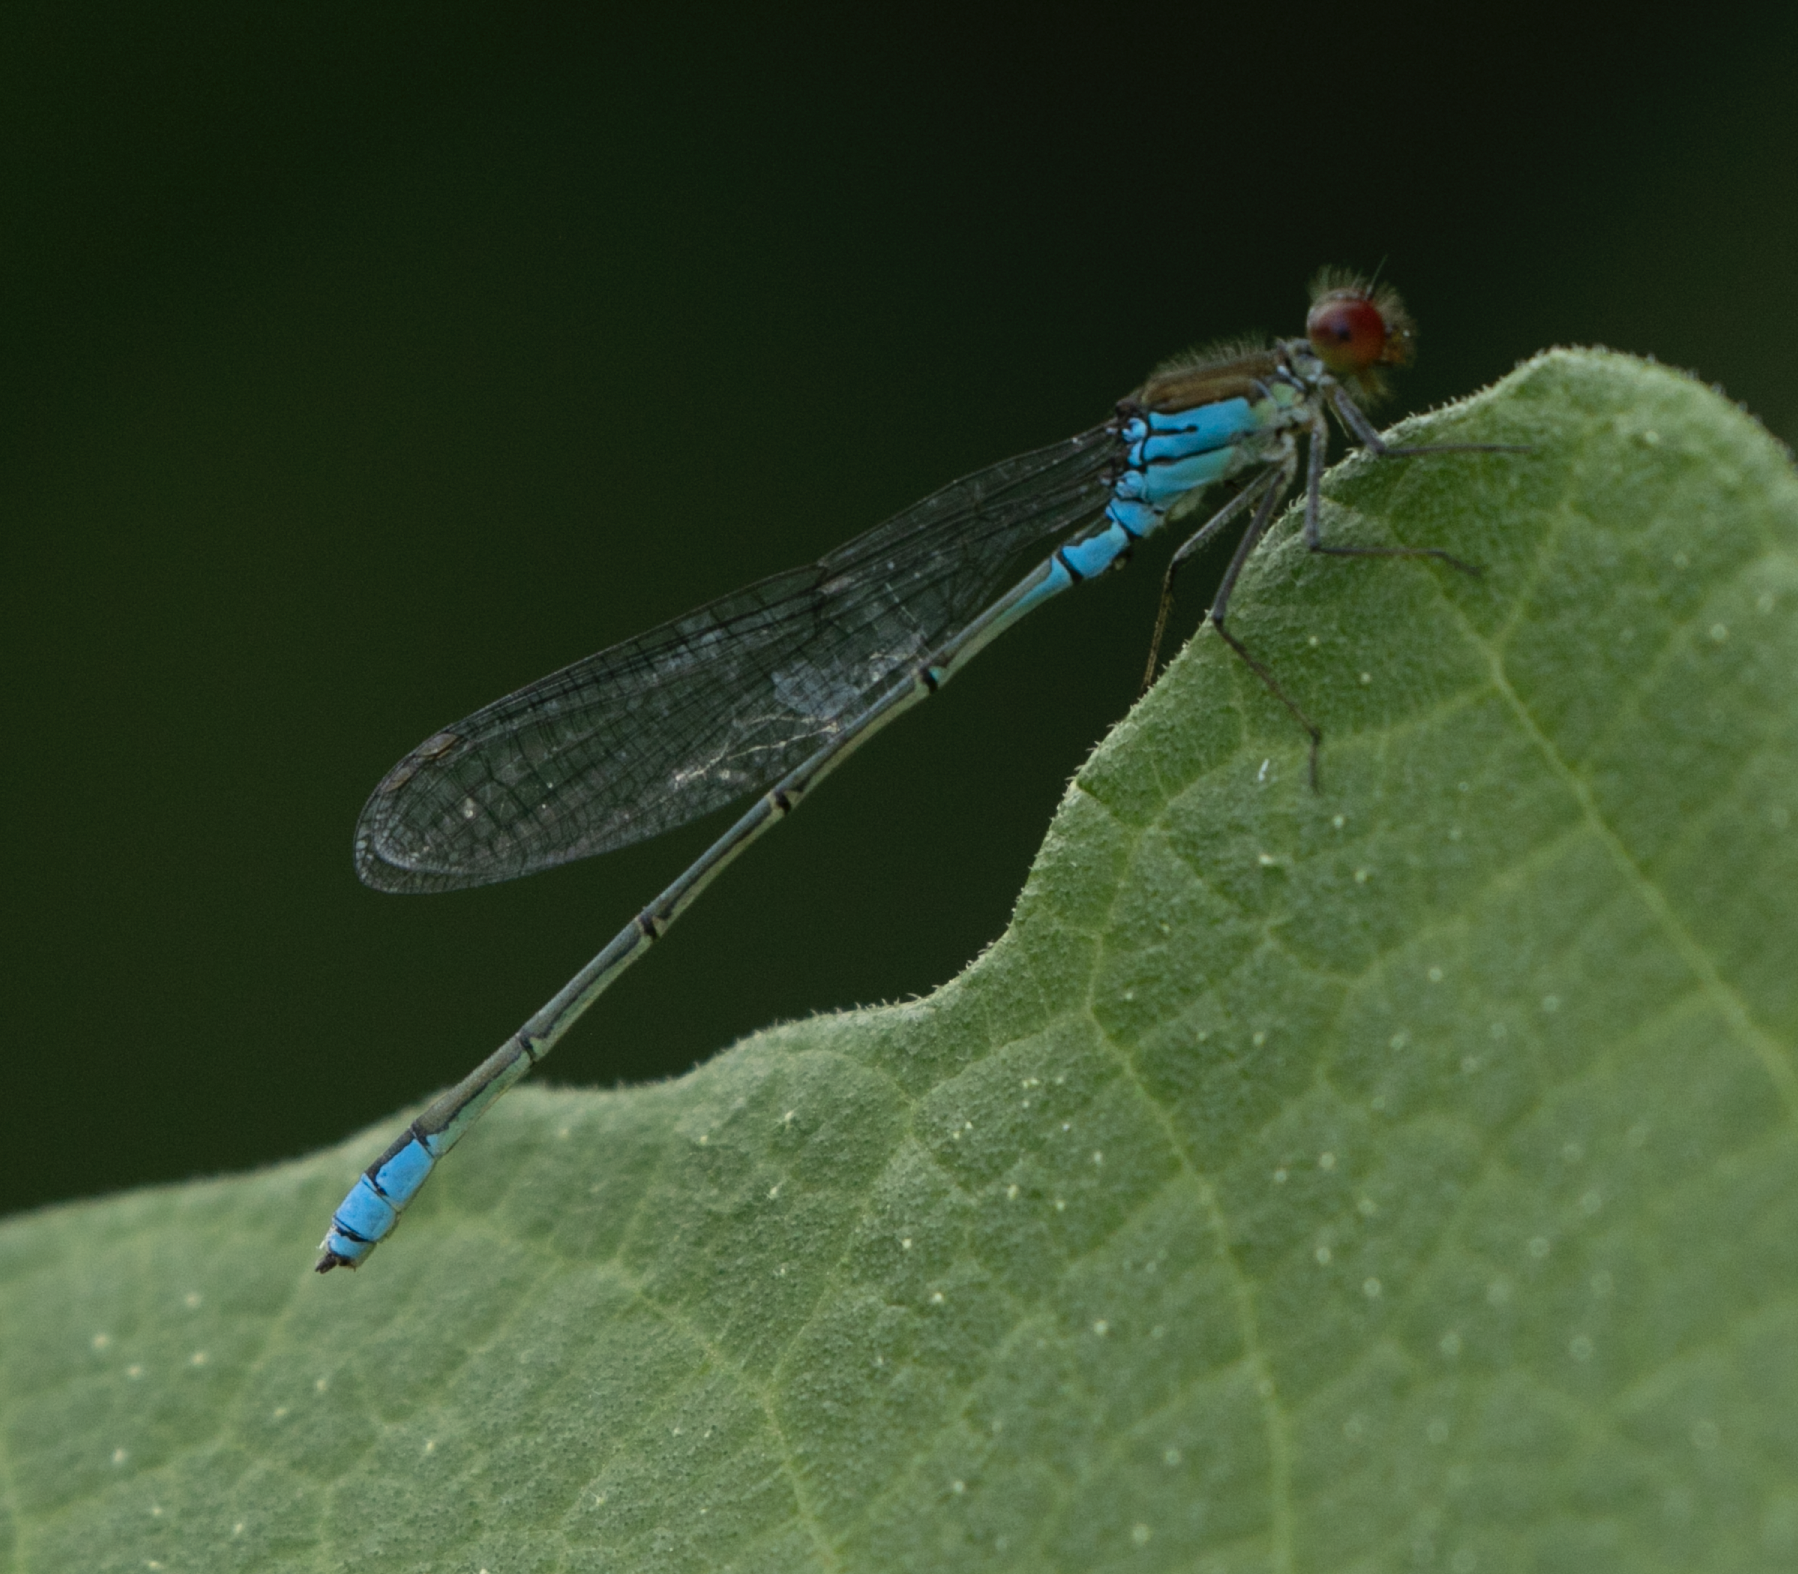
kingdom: Animalia
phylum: Arthropoda
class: Insecta
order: Odonata
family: Coenagrionidae
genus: Erythromma
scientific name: Erythromma viridulum
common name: Small red-eyed damselfly
